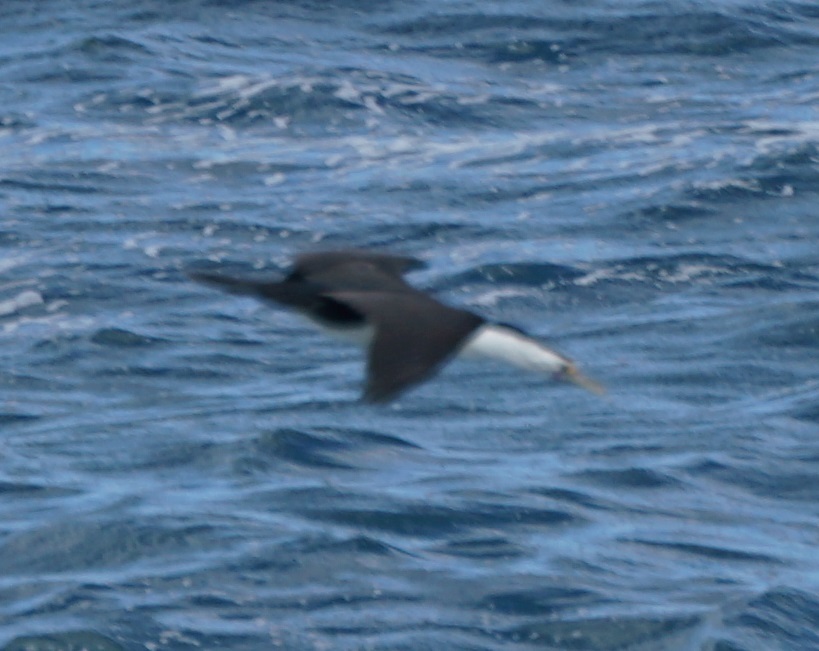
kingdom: Animalia
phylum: Chordata
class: Aves
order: Suliformes
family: Phalacrocoracidae
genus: Phalacrocorax
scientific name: Phalacrocorax varius
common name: Pied cormorant
